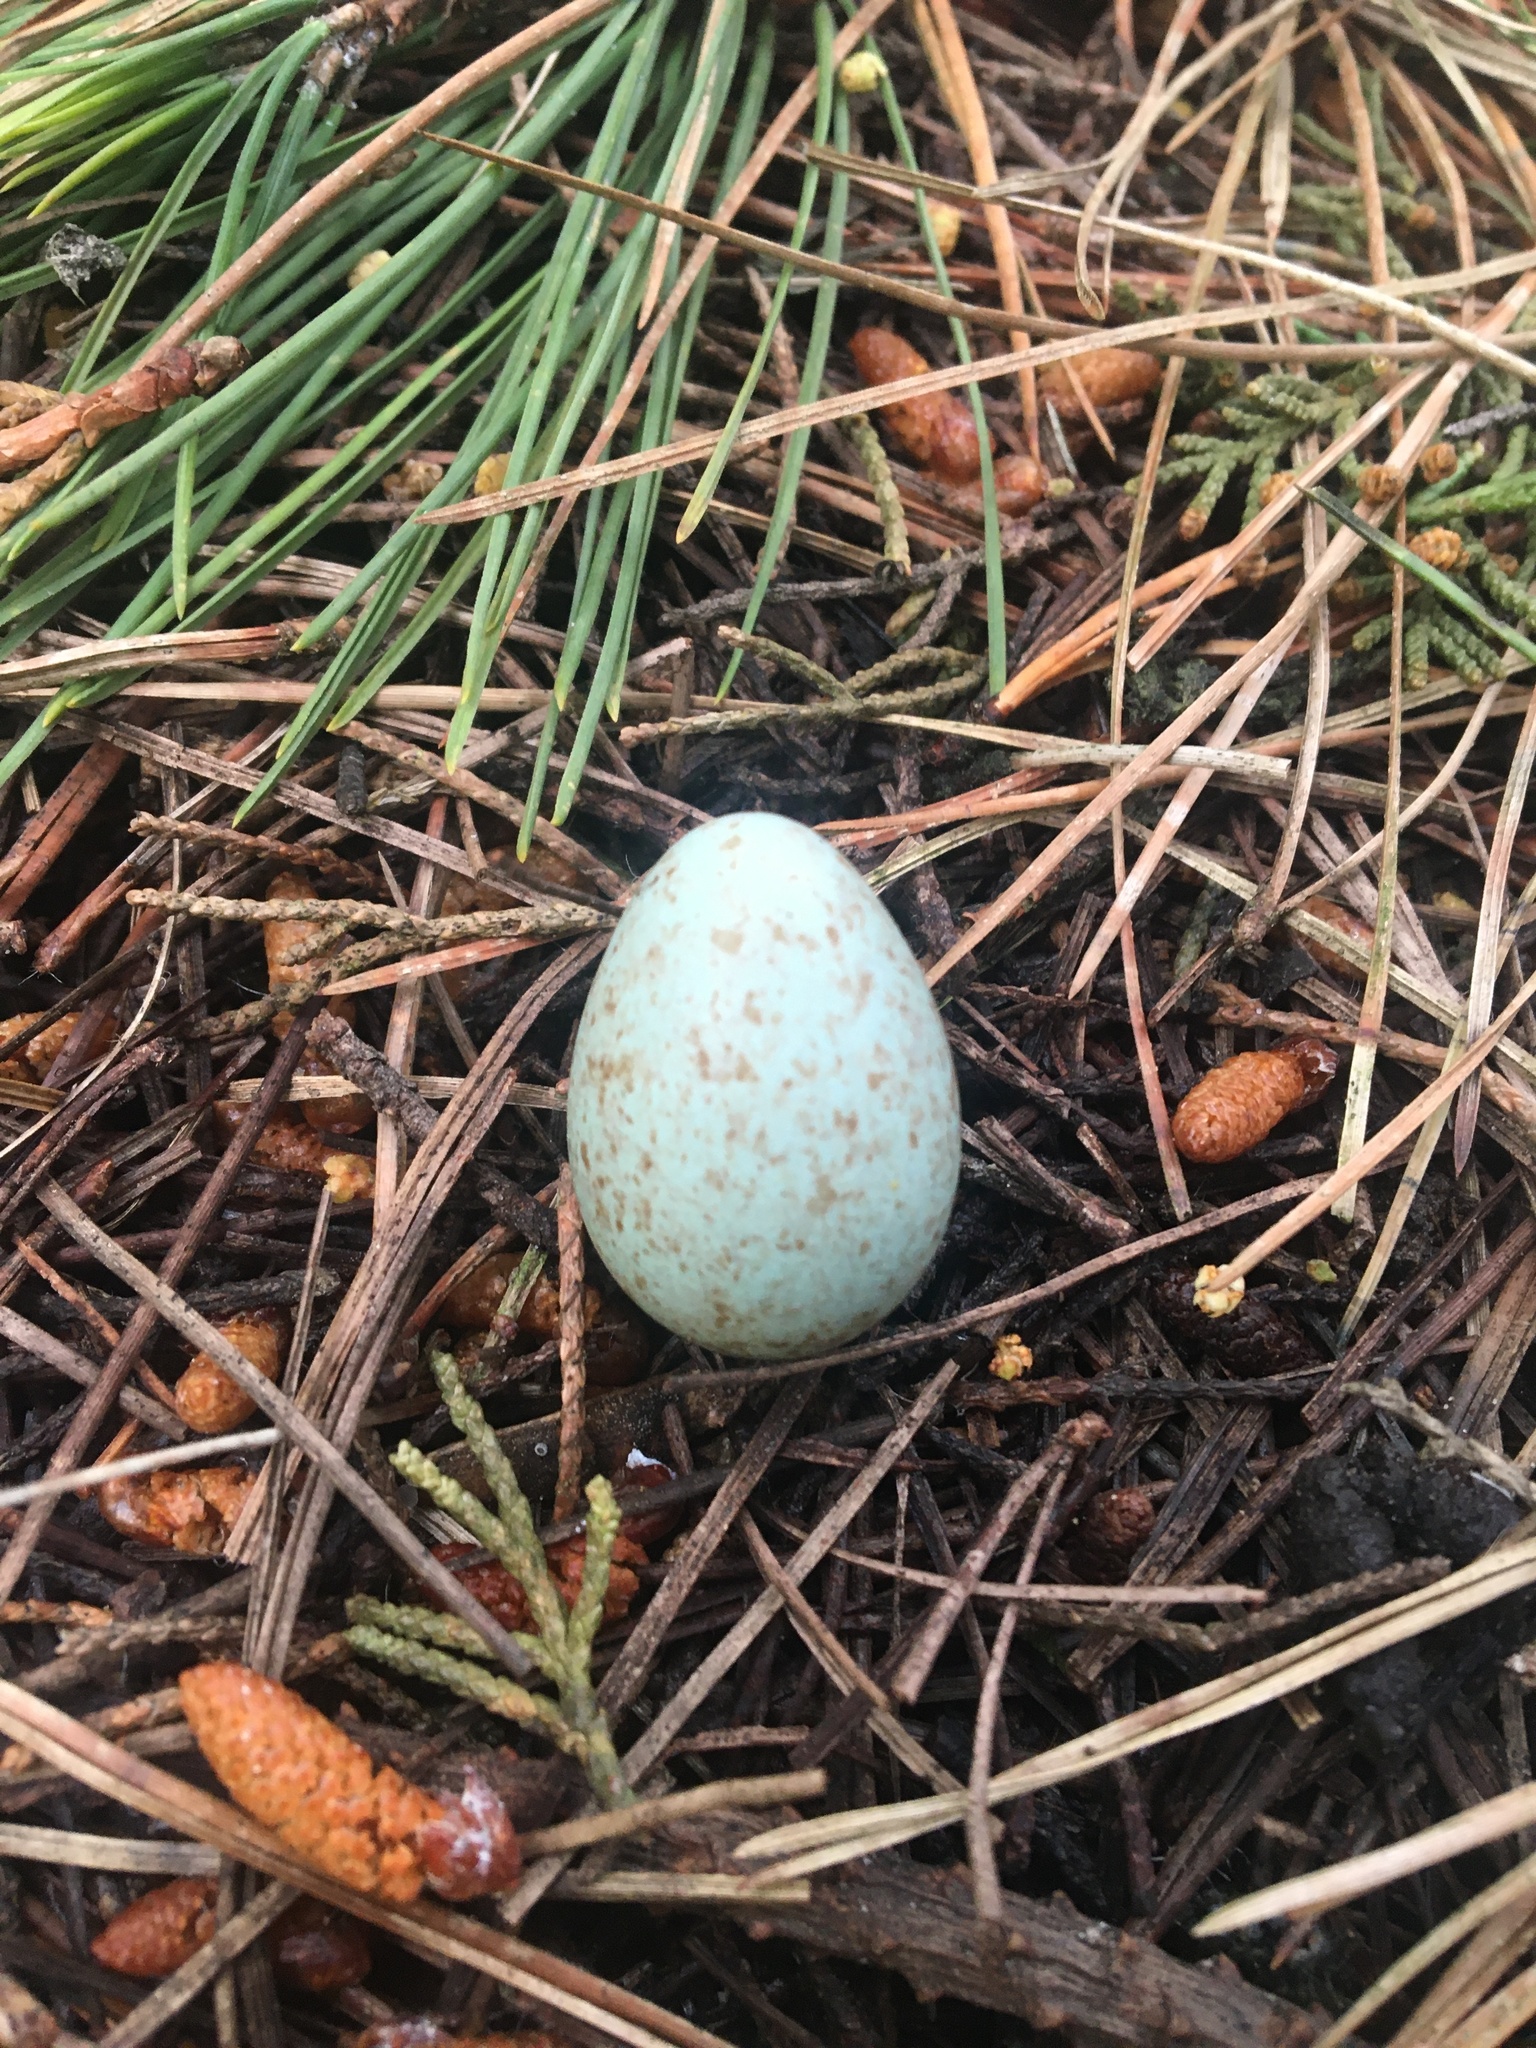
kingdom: Animalia
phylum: Chordata
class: Aves
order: Passeriformes
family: Turdidae
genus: Turdus
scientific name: Turdus merula
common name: Common blackbird
